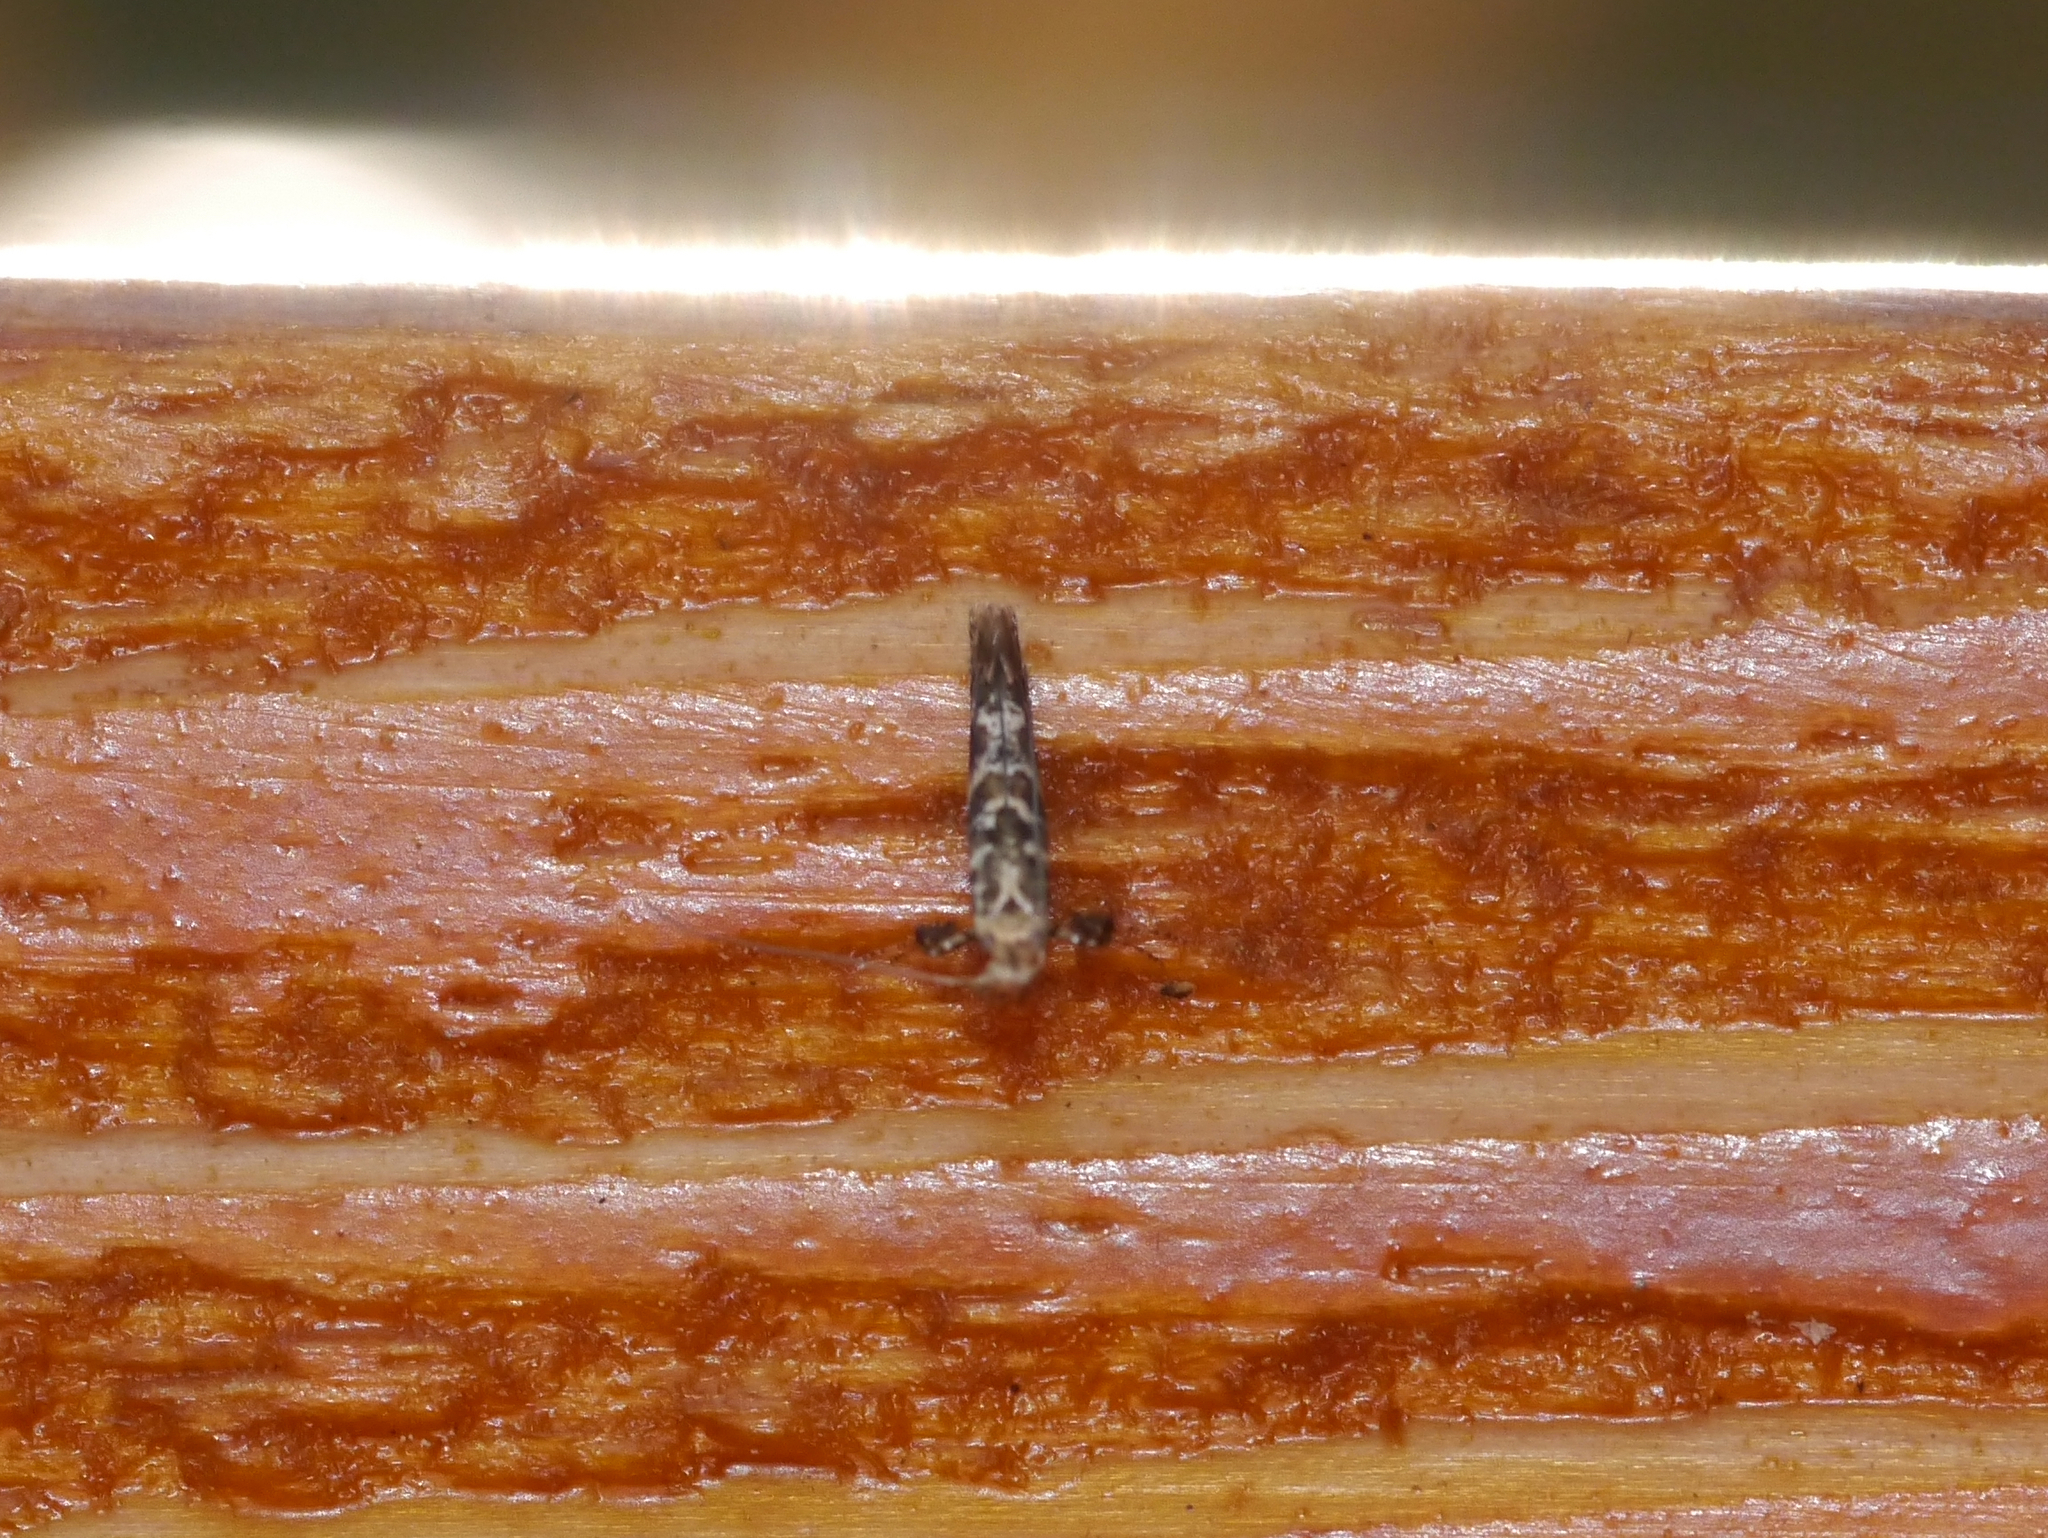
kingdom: Animalia
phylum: Arthropoda
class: Insecta
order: Lepidoptera
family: Gracillariidae
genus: Gracillaria
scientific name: Gracillaria syringella
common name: Common slender
